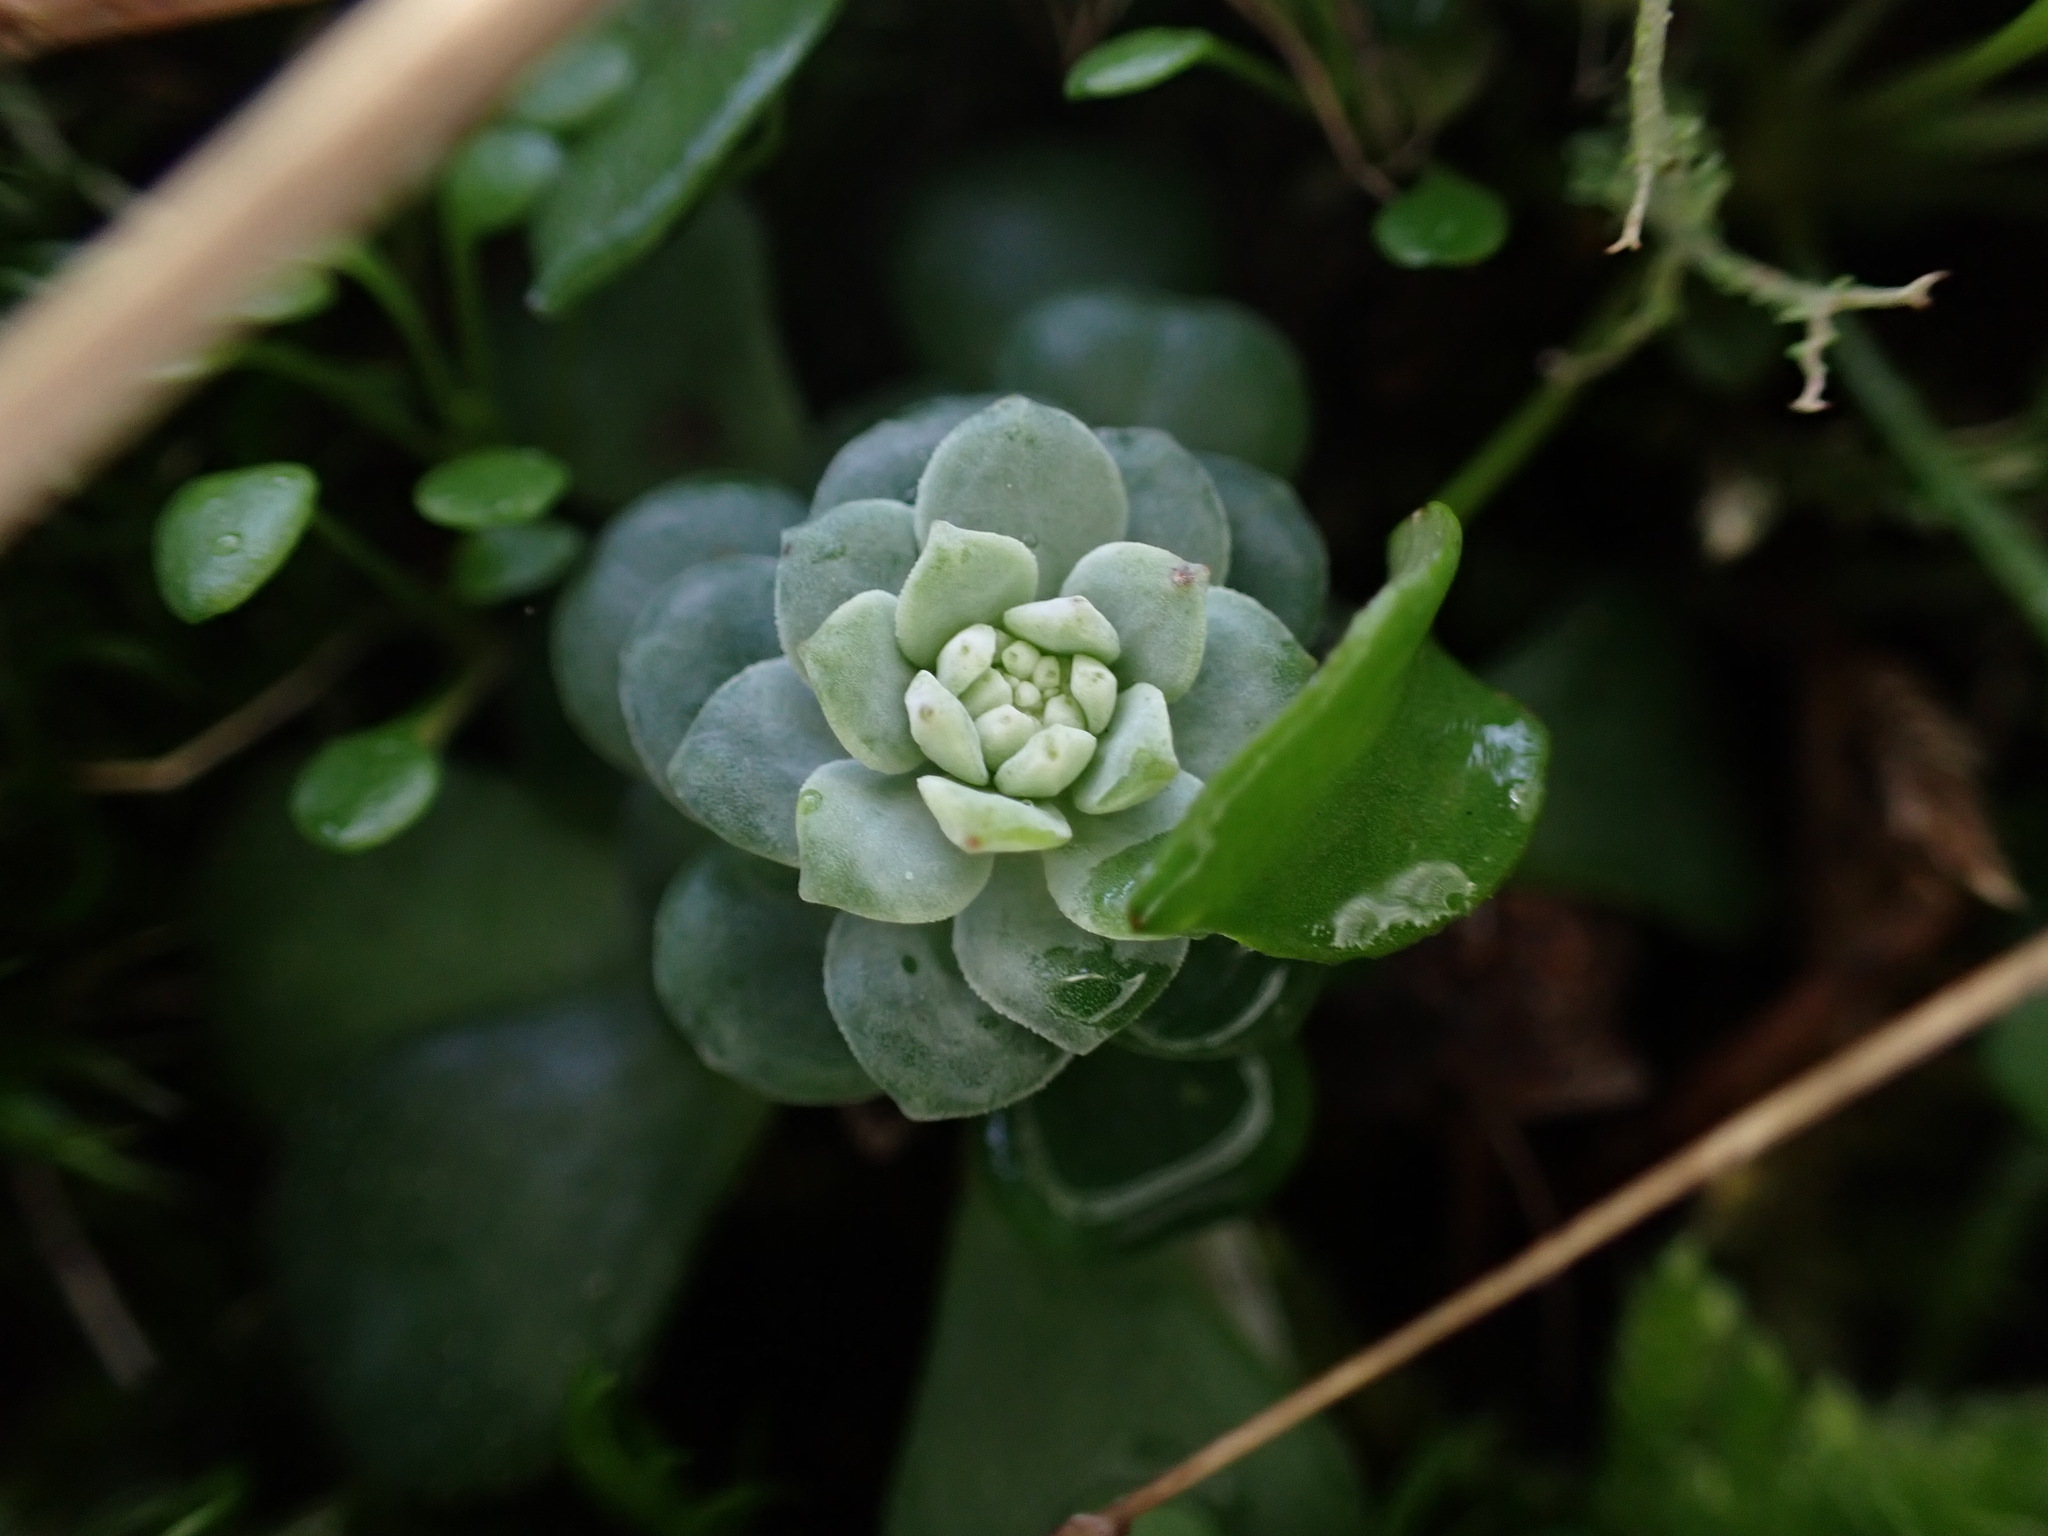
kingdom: Plantae
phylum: Tracheophyta
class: Magnoliopsida
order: Saxifragales
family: Crassulaceae
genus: Sedum
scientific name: Sedum spathulifolium
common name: Colorado stonecrop
